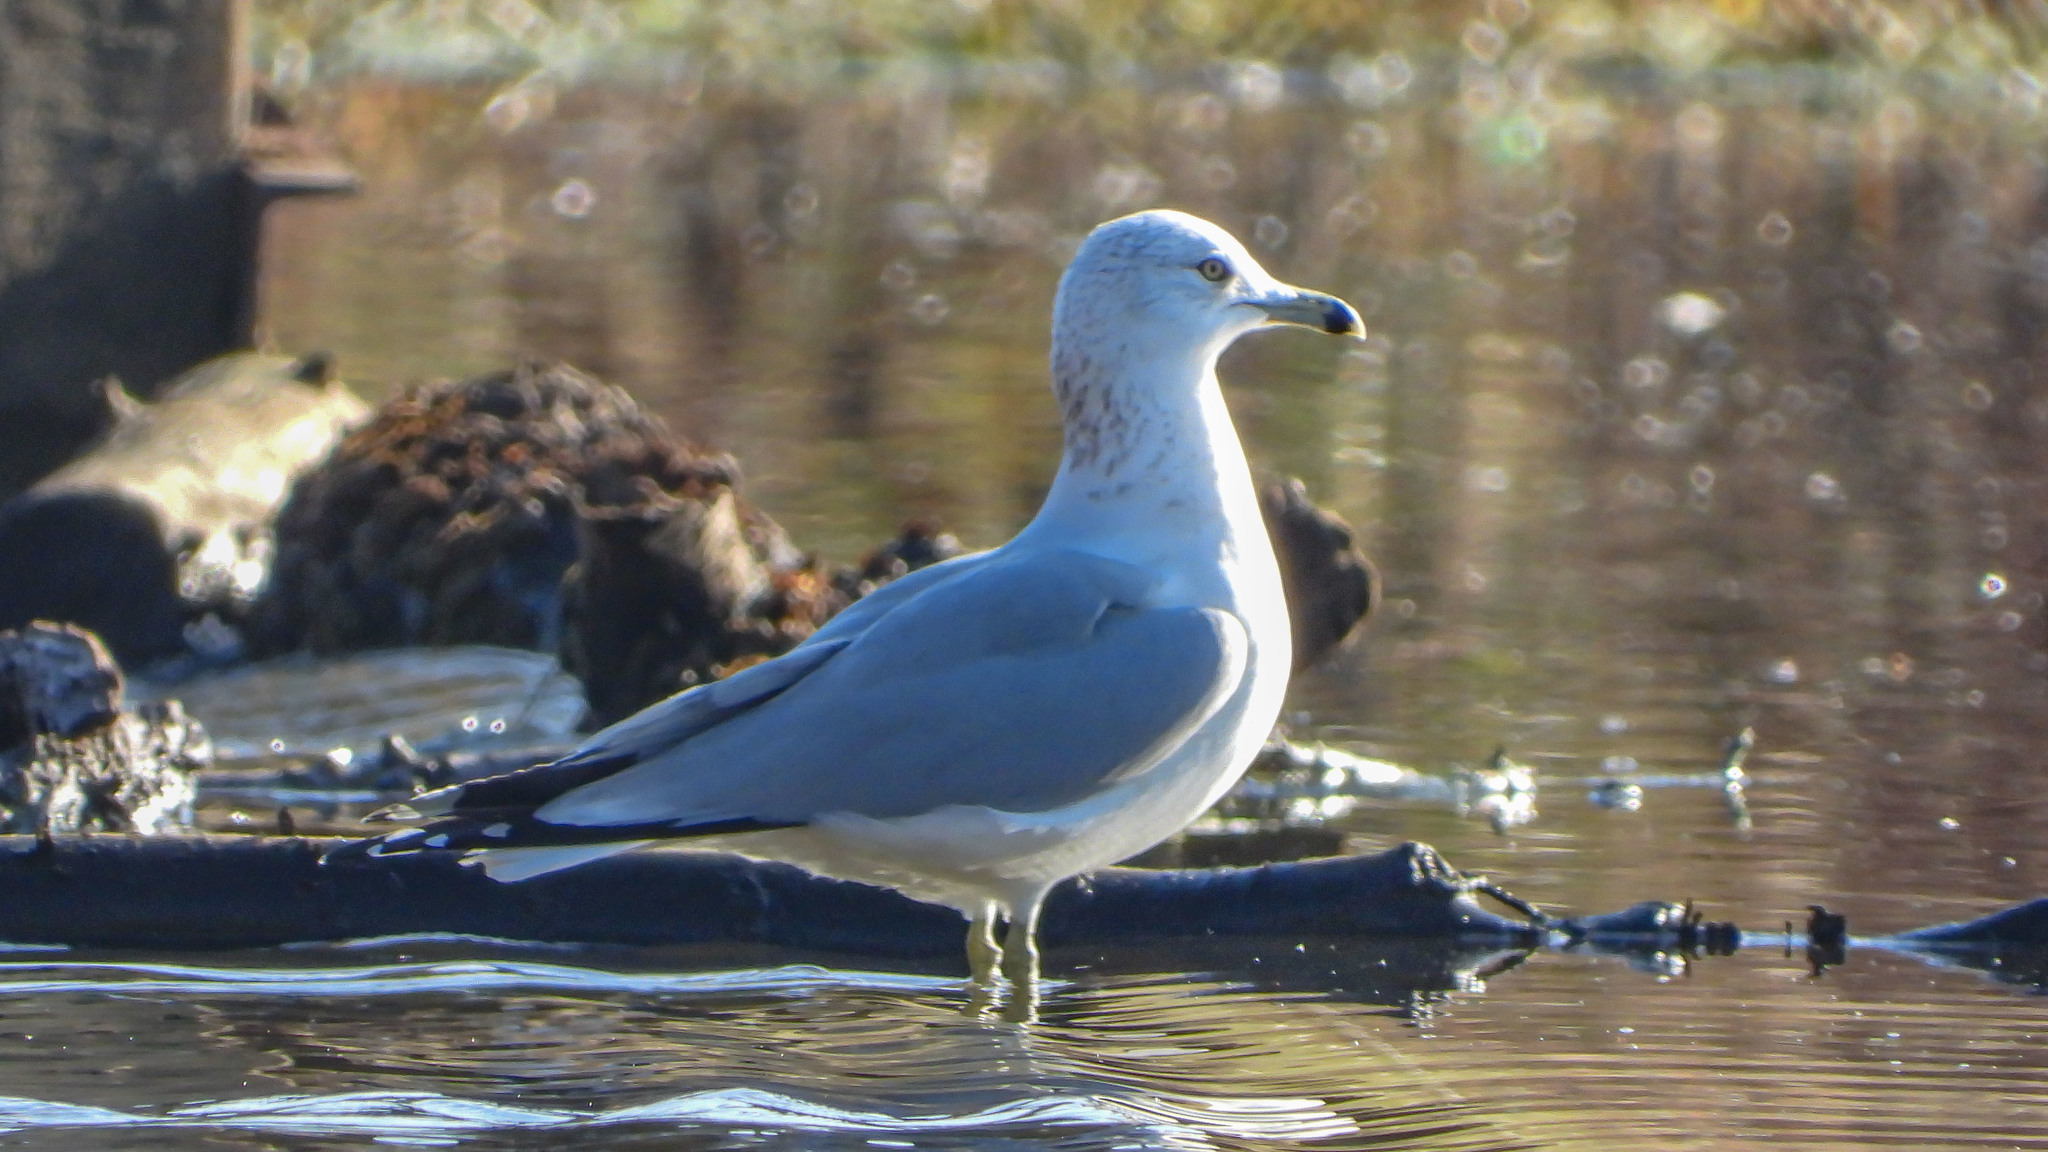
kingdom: Animalia
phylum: Chordata
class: Aves
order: Charadriiformes
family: Laridae
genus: Larus
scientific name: Larus delawarensis
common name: Ring-billed gull
